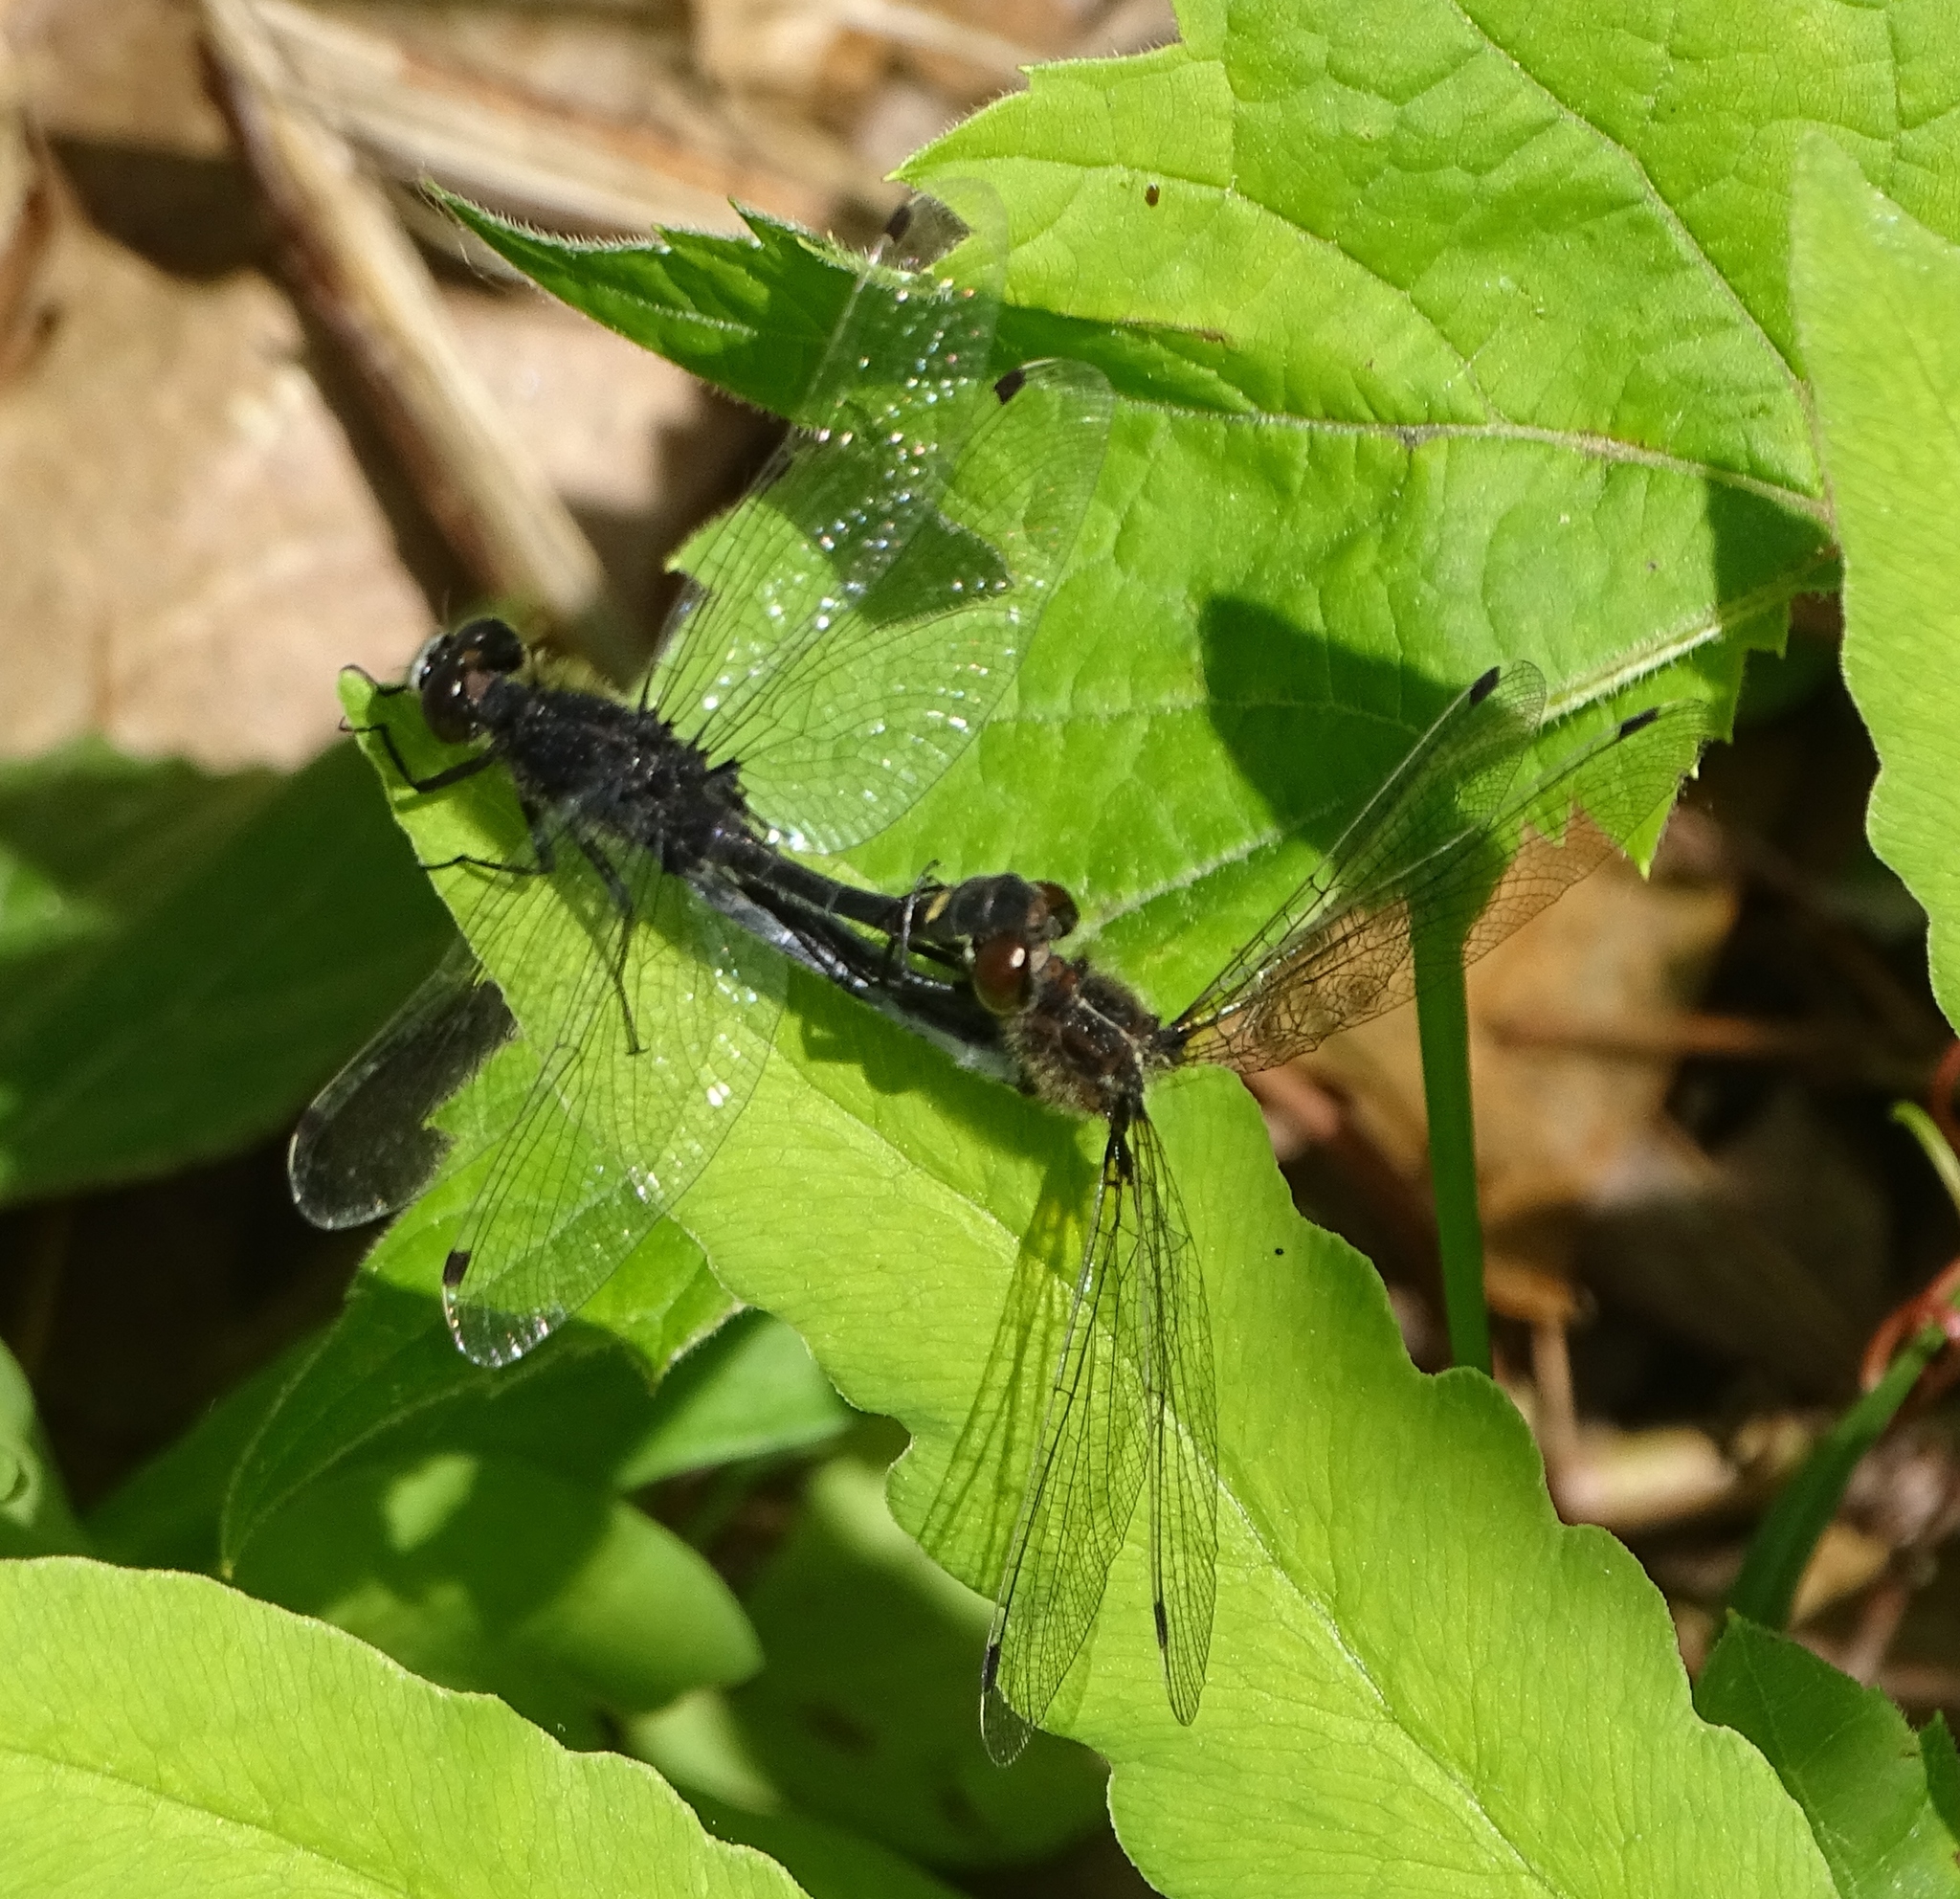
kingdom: Animalia
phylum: Arthropoda
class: Insecta
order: Odonata
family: Libellulidae
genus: Leucorrhinia
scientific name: Leucorrhinia intacta
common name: Dot-tailed whiteface
